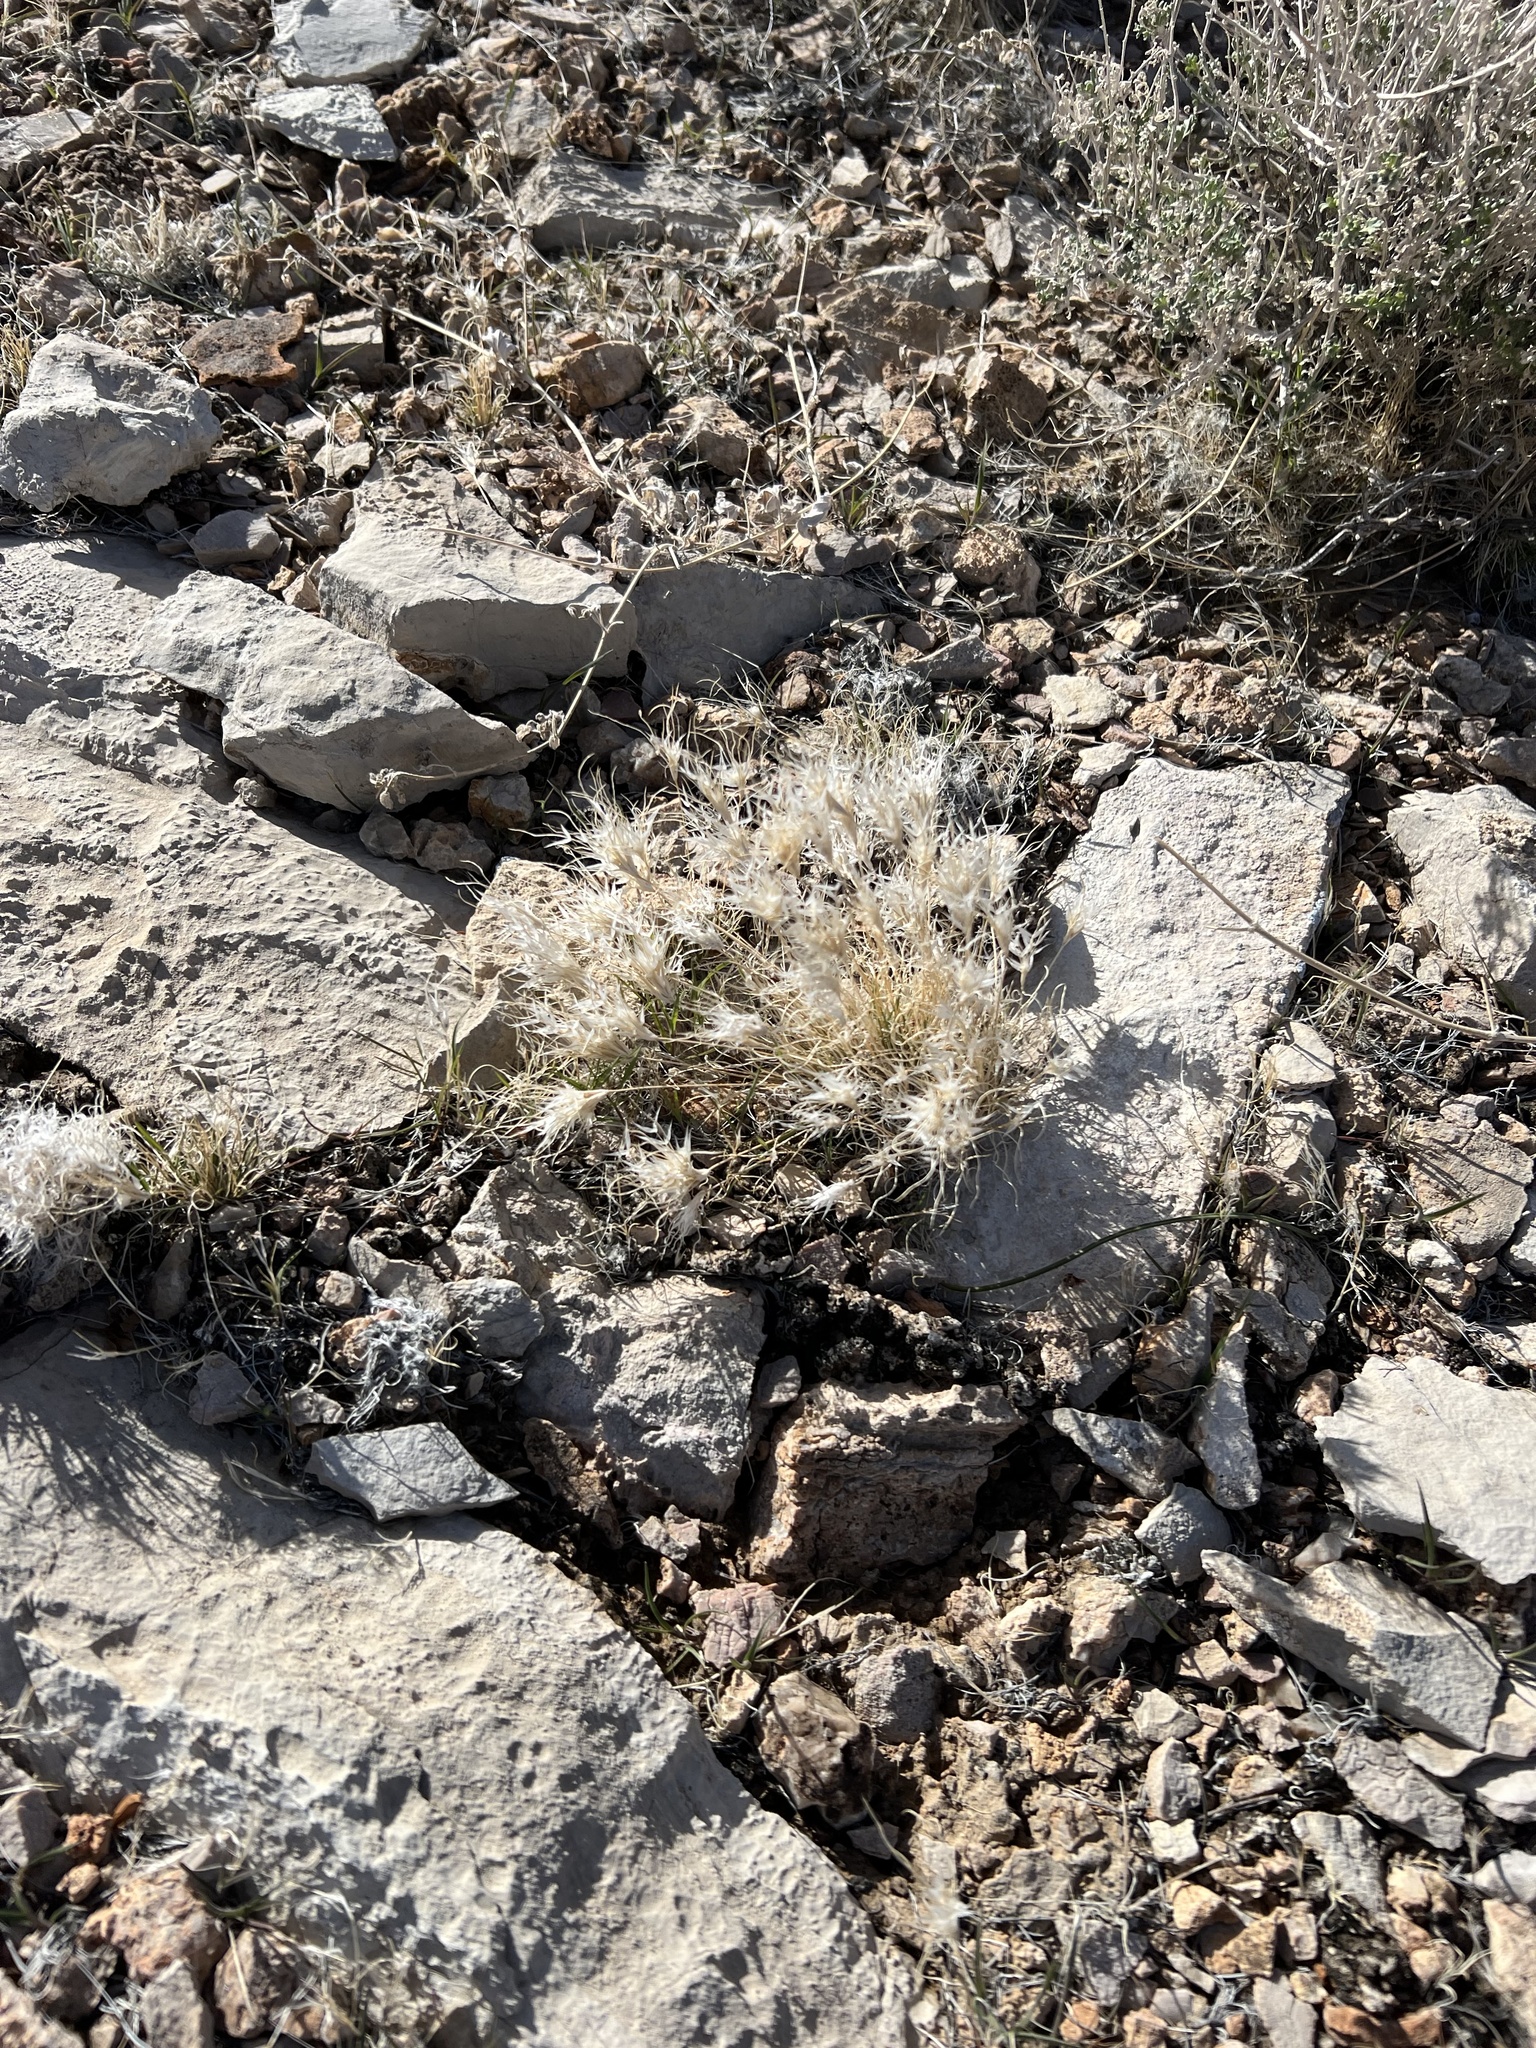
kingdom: Plantae
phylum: Tracheophyta
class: Liliopsida
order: Poales
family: Poaceae
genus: Dasyochloa
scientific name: Dasyochloa pulchella
